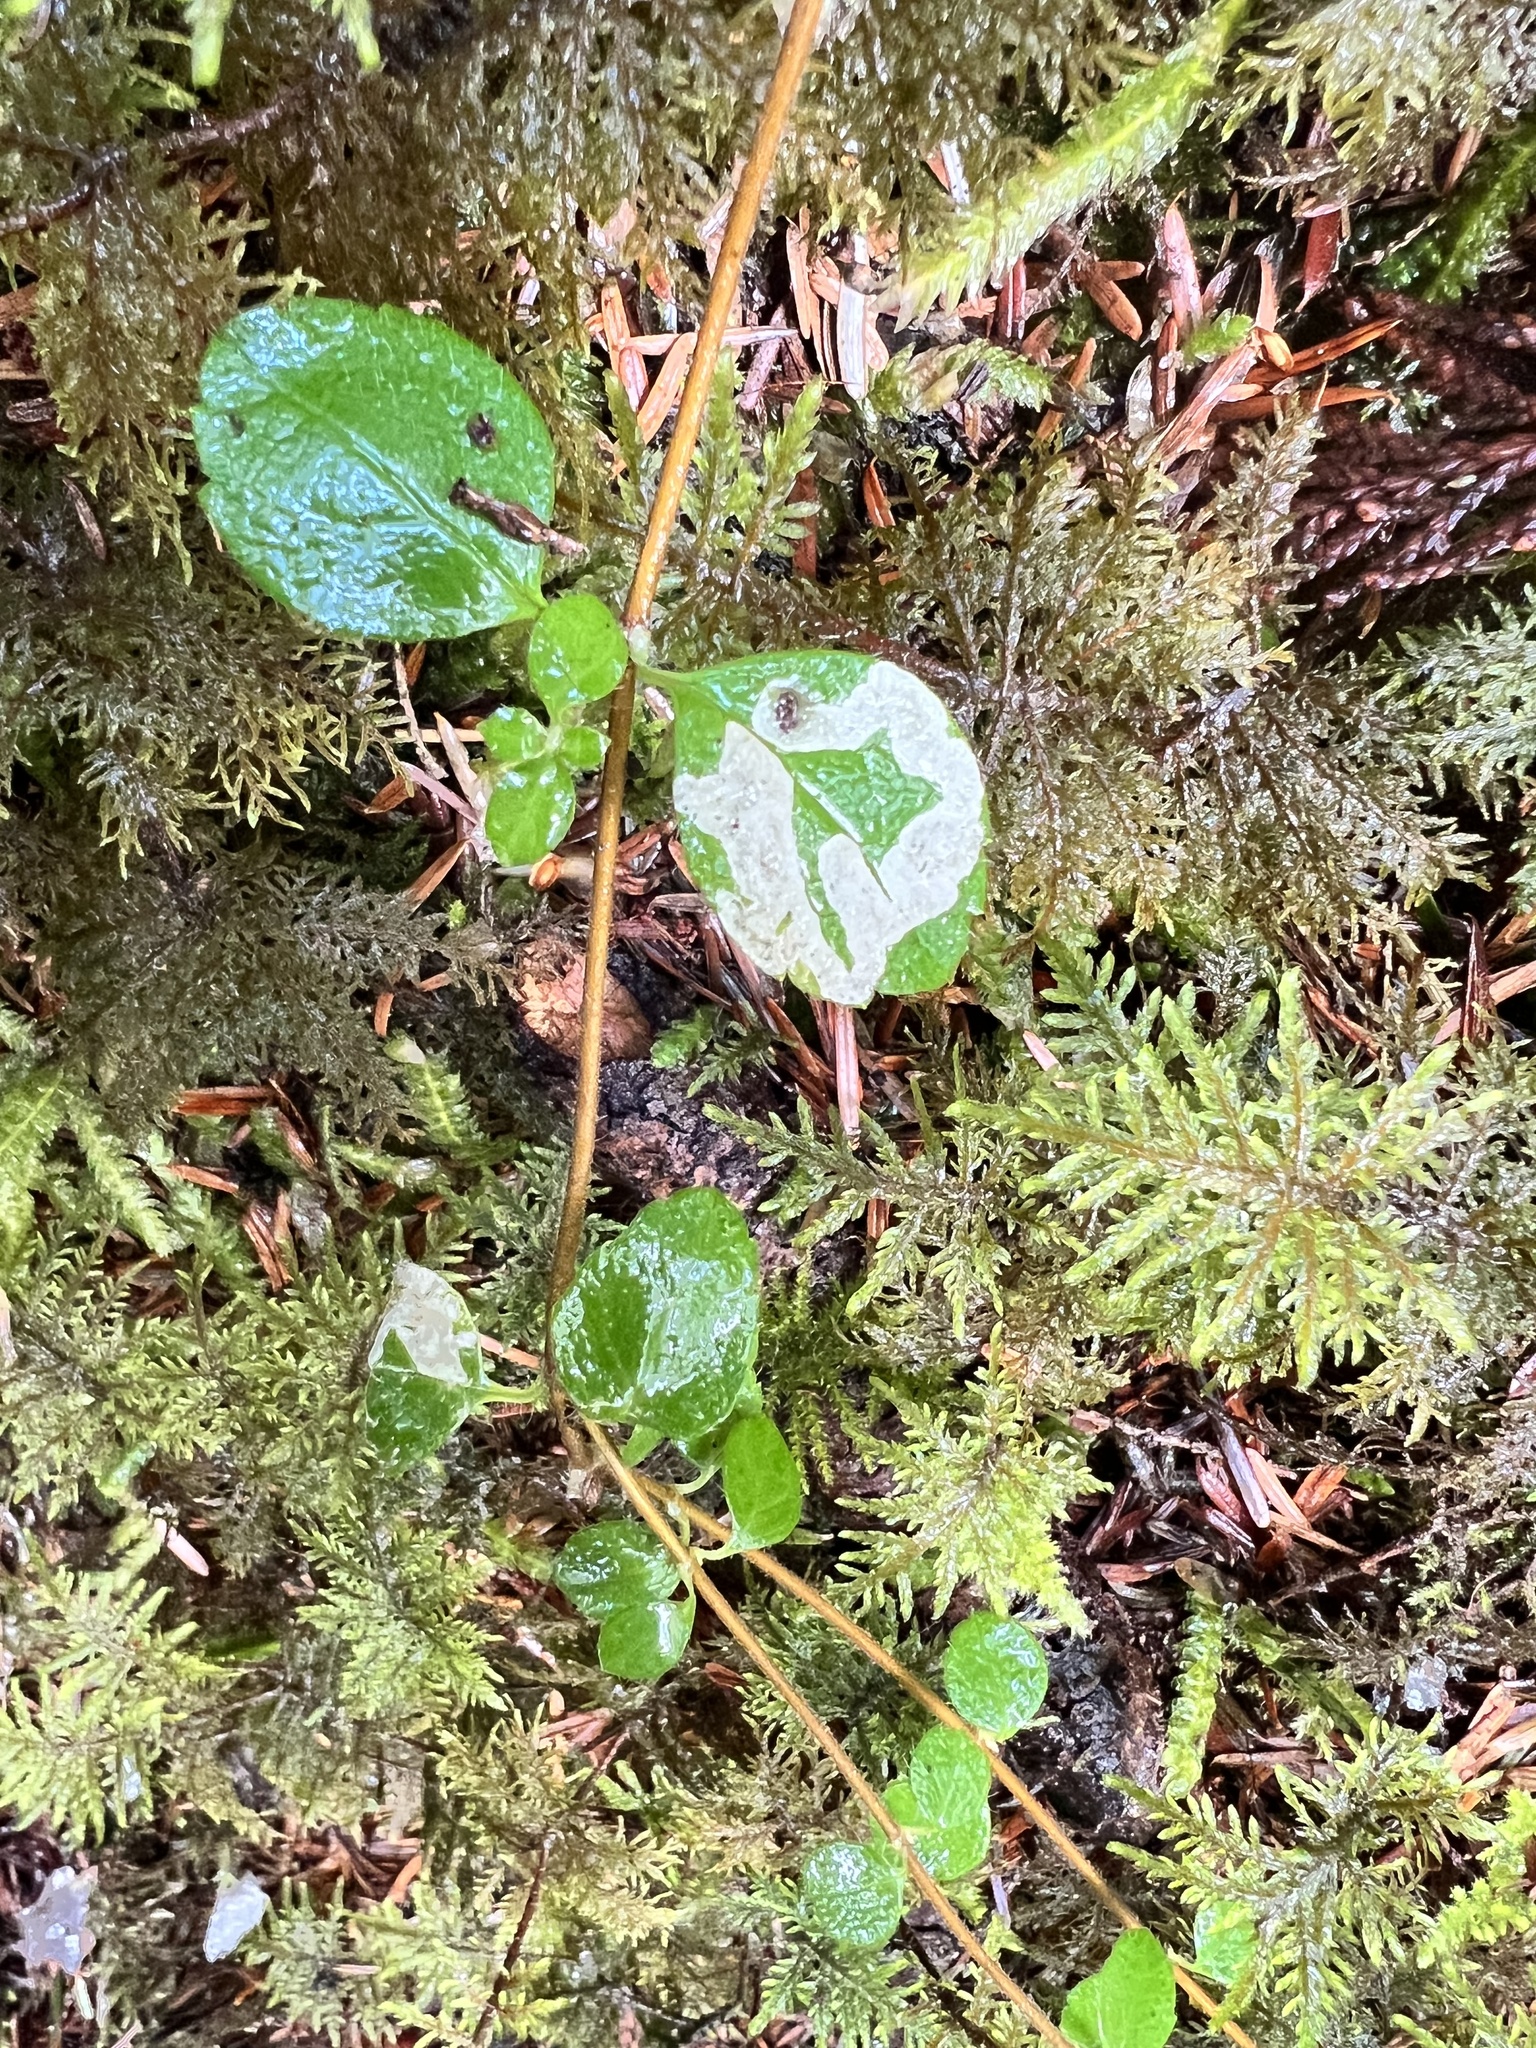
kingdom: Plantae
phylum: Tracheophyta
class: Magnoliopsida
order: Dipsacales
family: Caprifoliaceae
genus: Linnaea
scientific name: Linnaea borealis
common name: Twinflower
